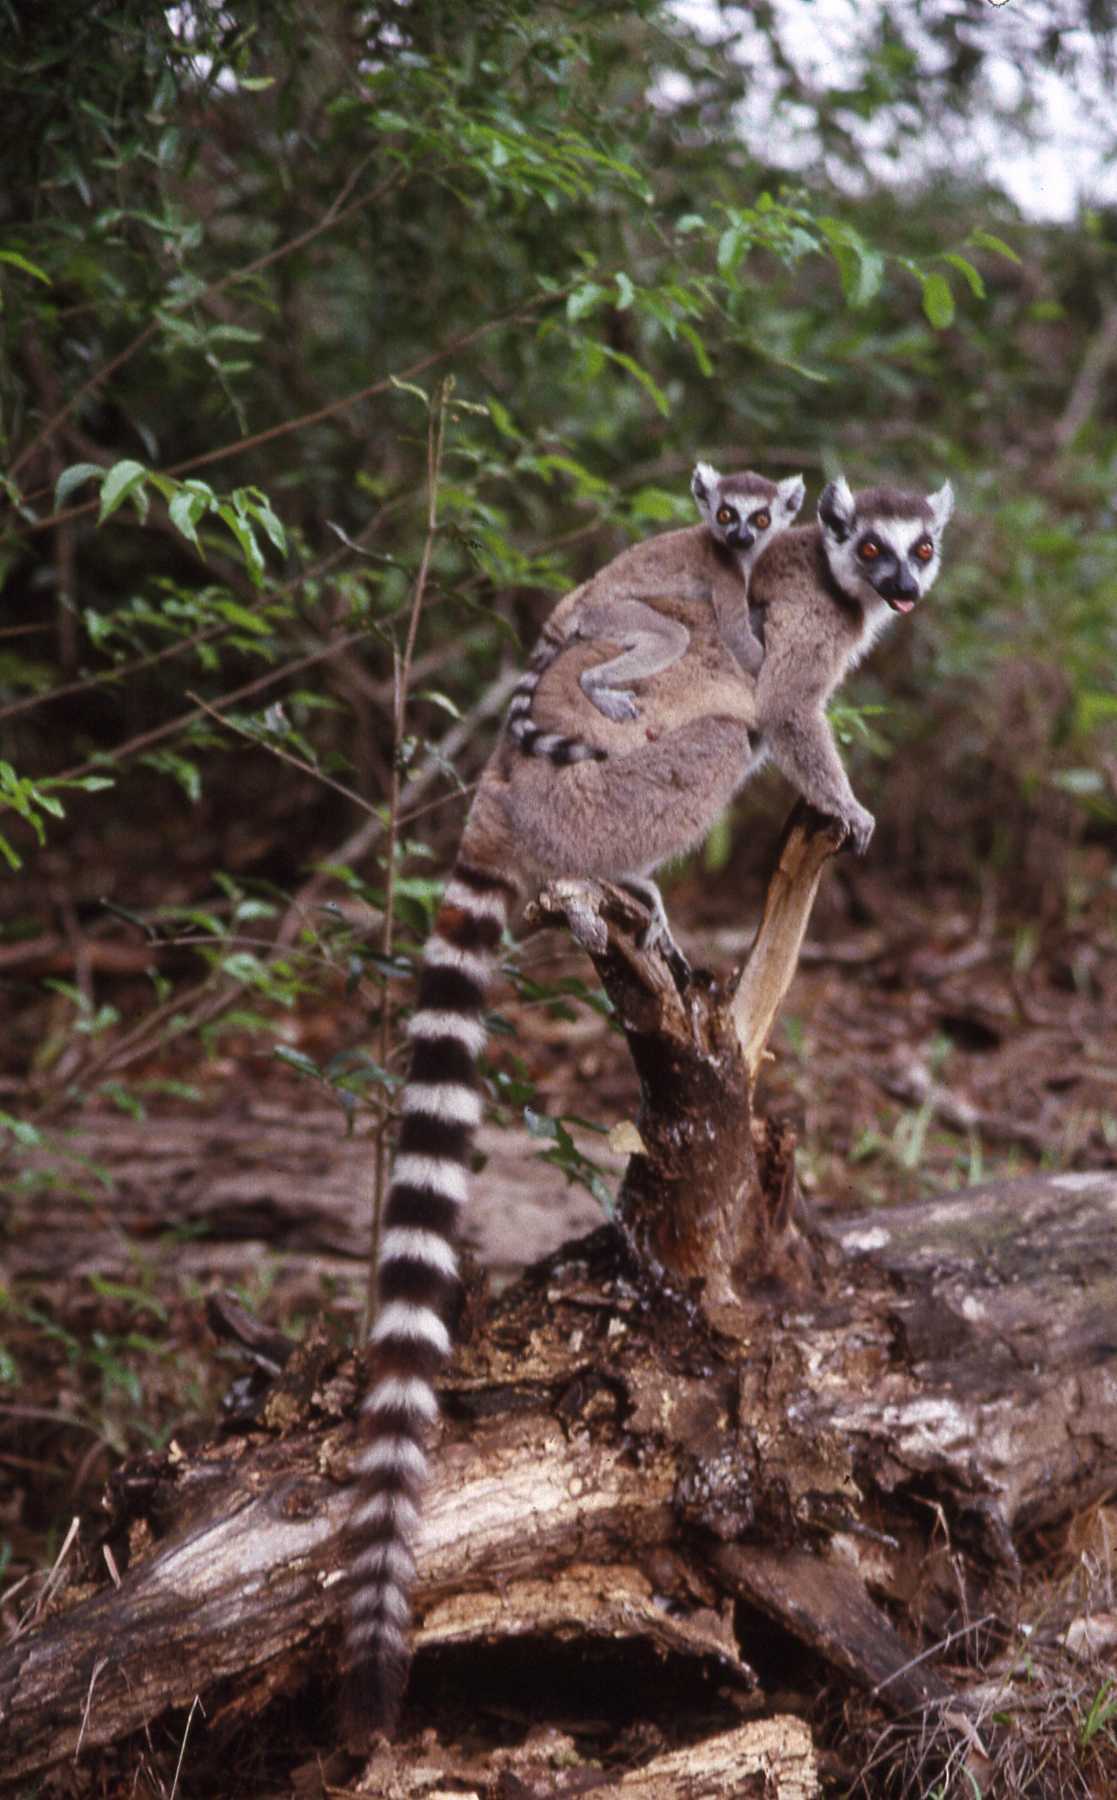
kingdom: Animalia
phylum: Chordata
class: Mammalia
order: Primates
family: Lemuridae
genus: Lemur
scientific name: Lemur catta
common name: Ring-tailed lemur
